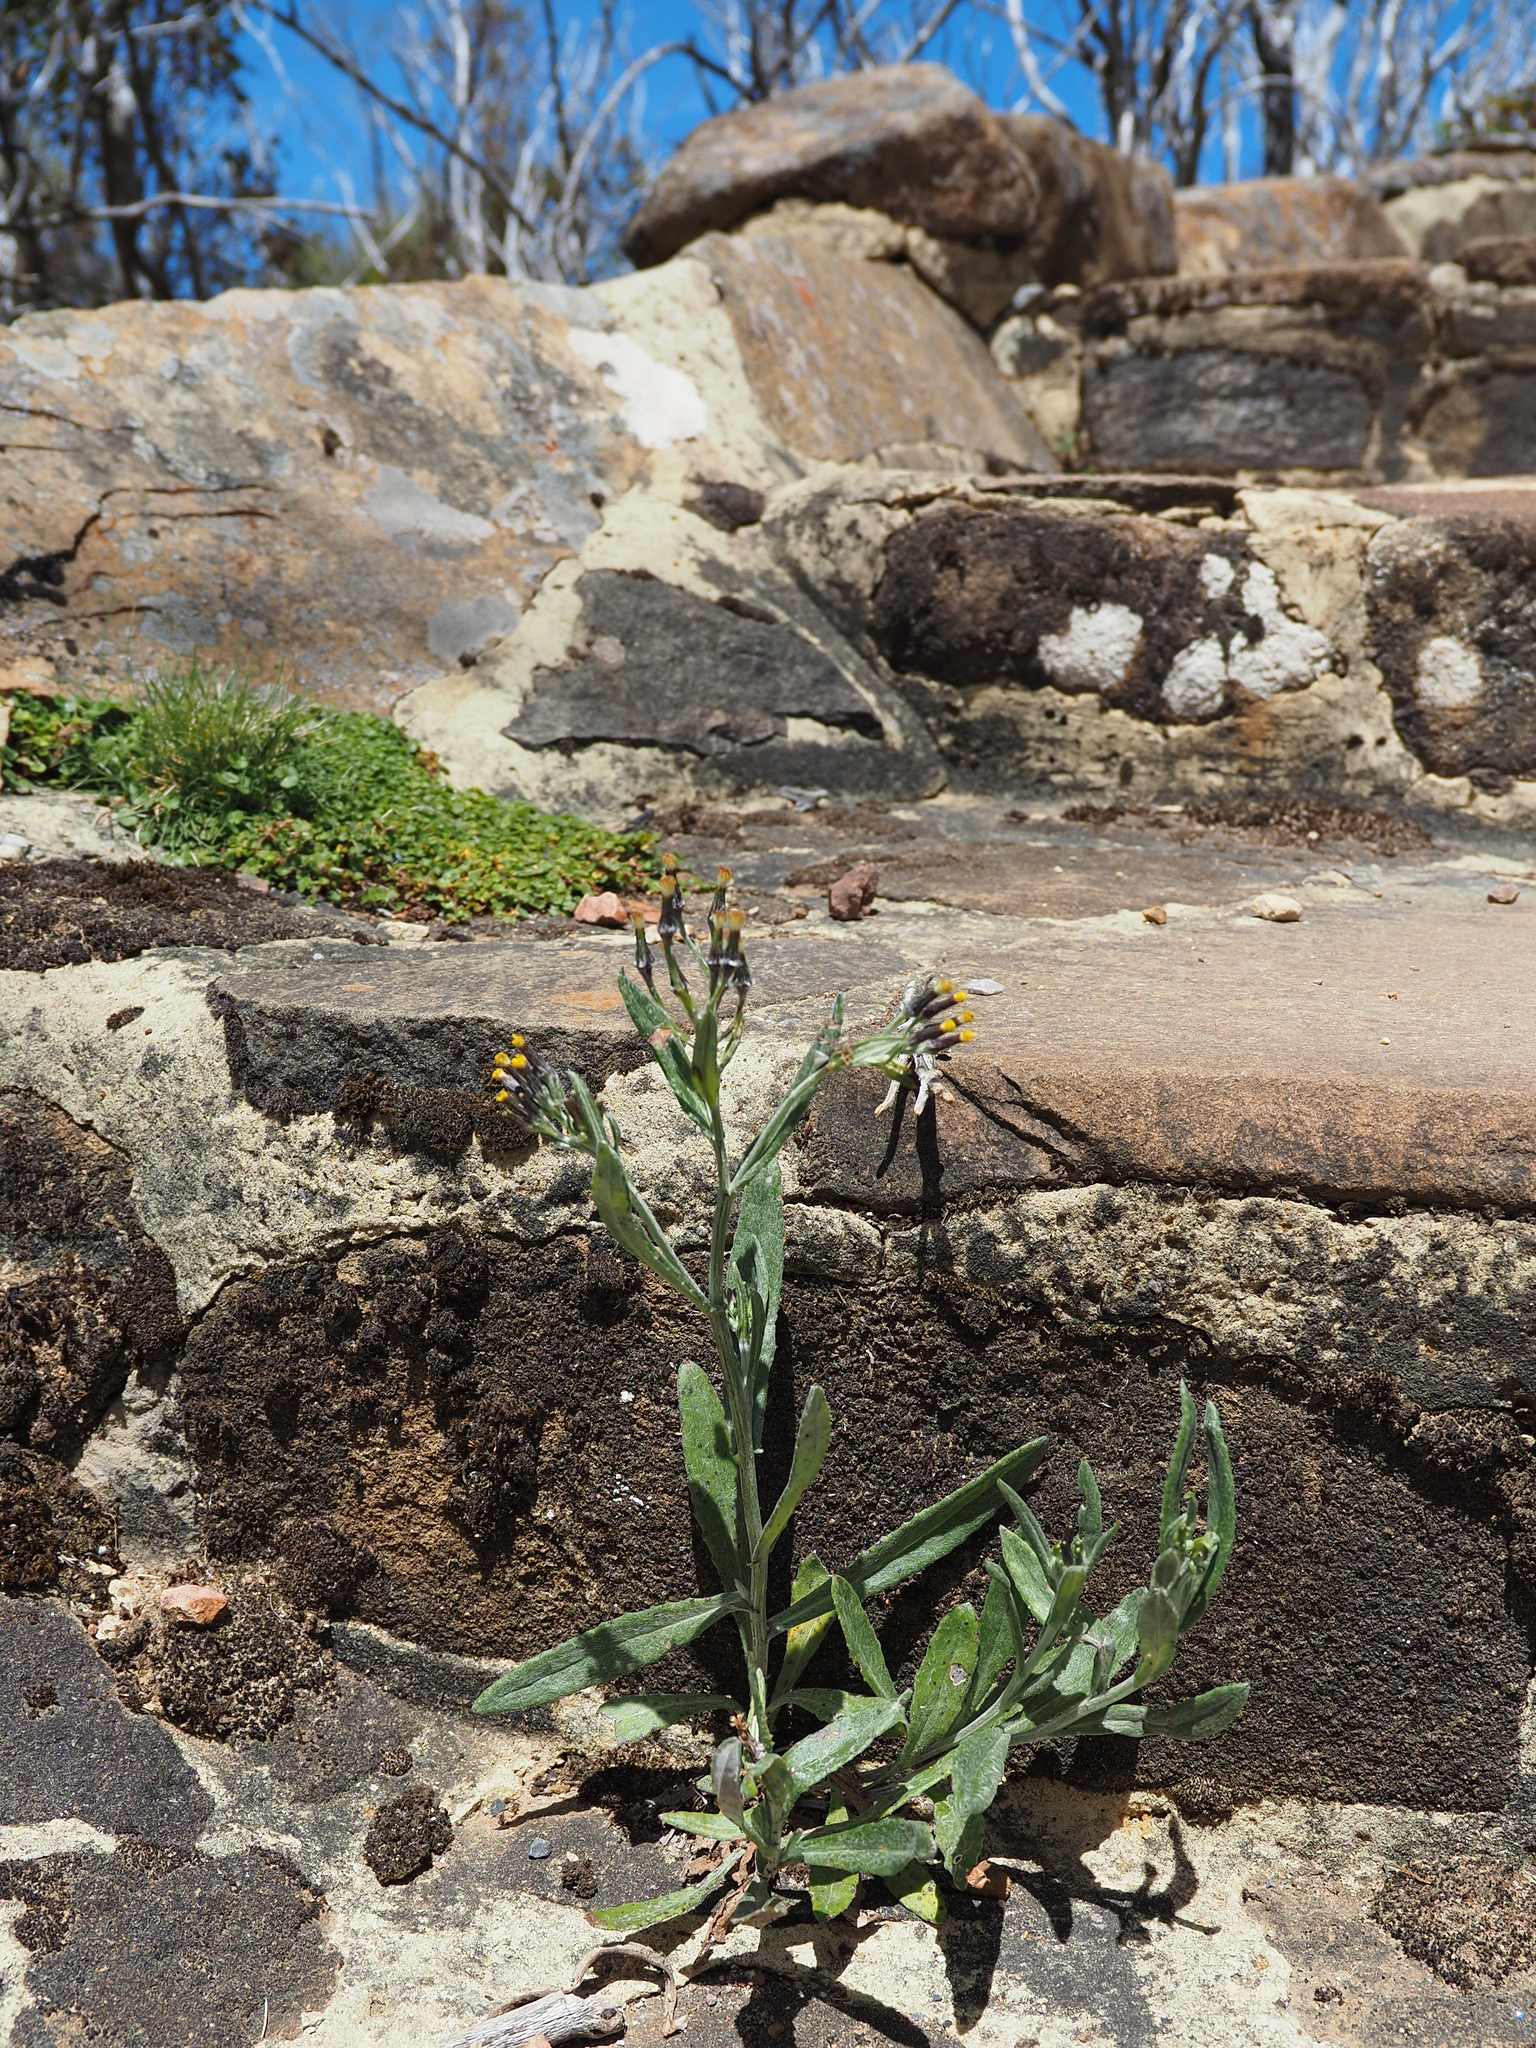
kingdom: Plantae
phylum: Tracheophyta
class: Magnoliopsida
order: Asterales
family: Asteraceae
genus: Senecio
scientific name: Senecio gunnii
